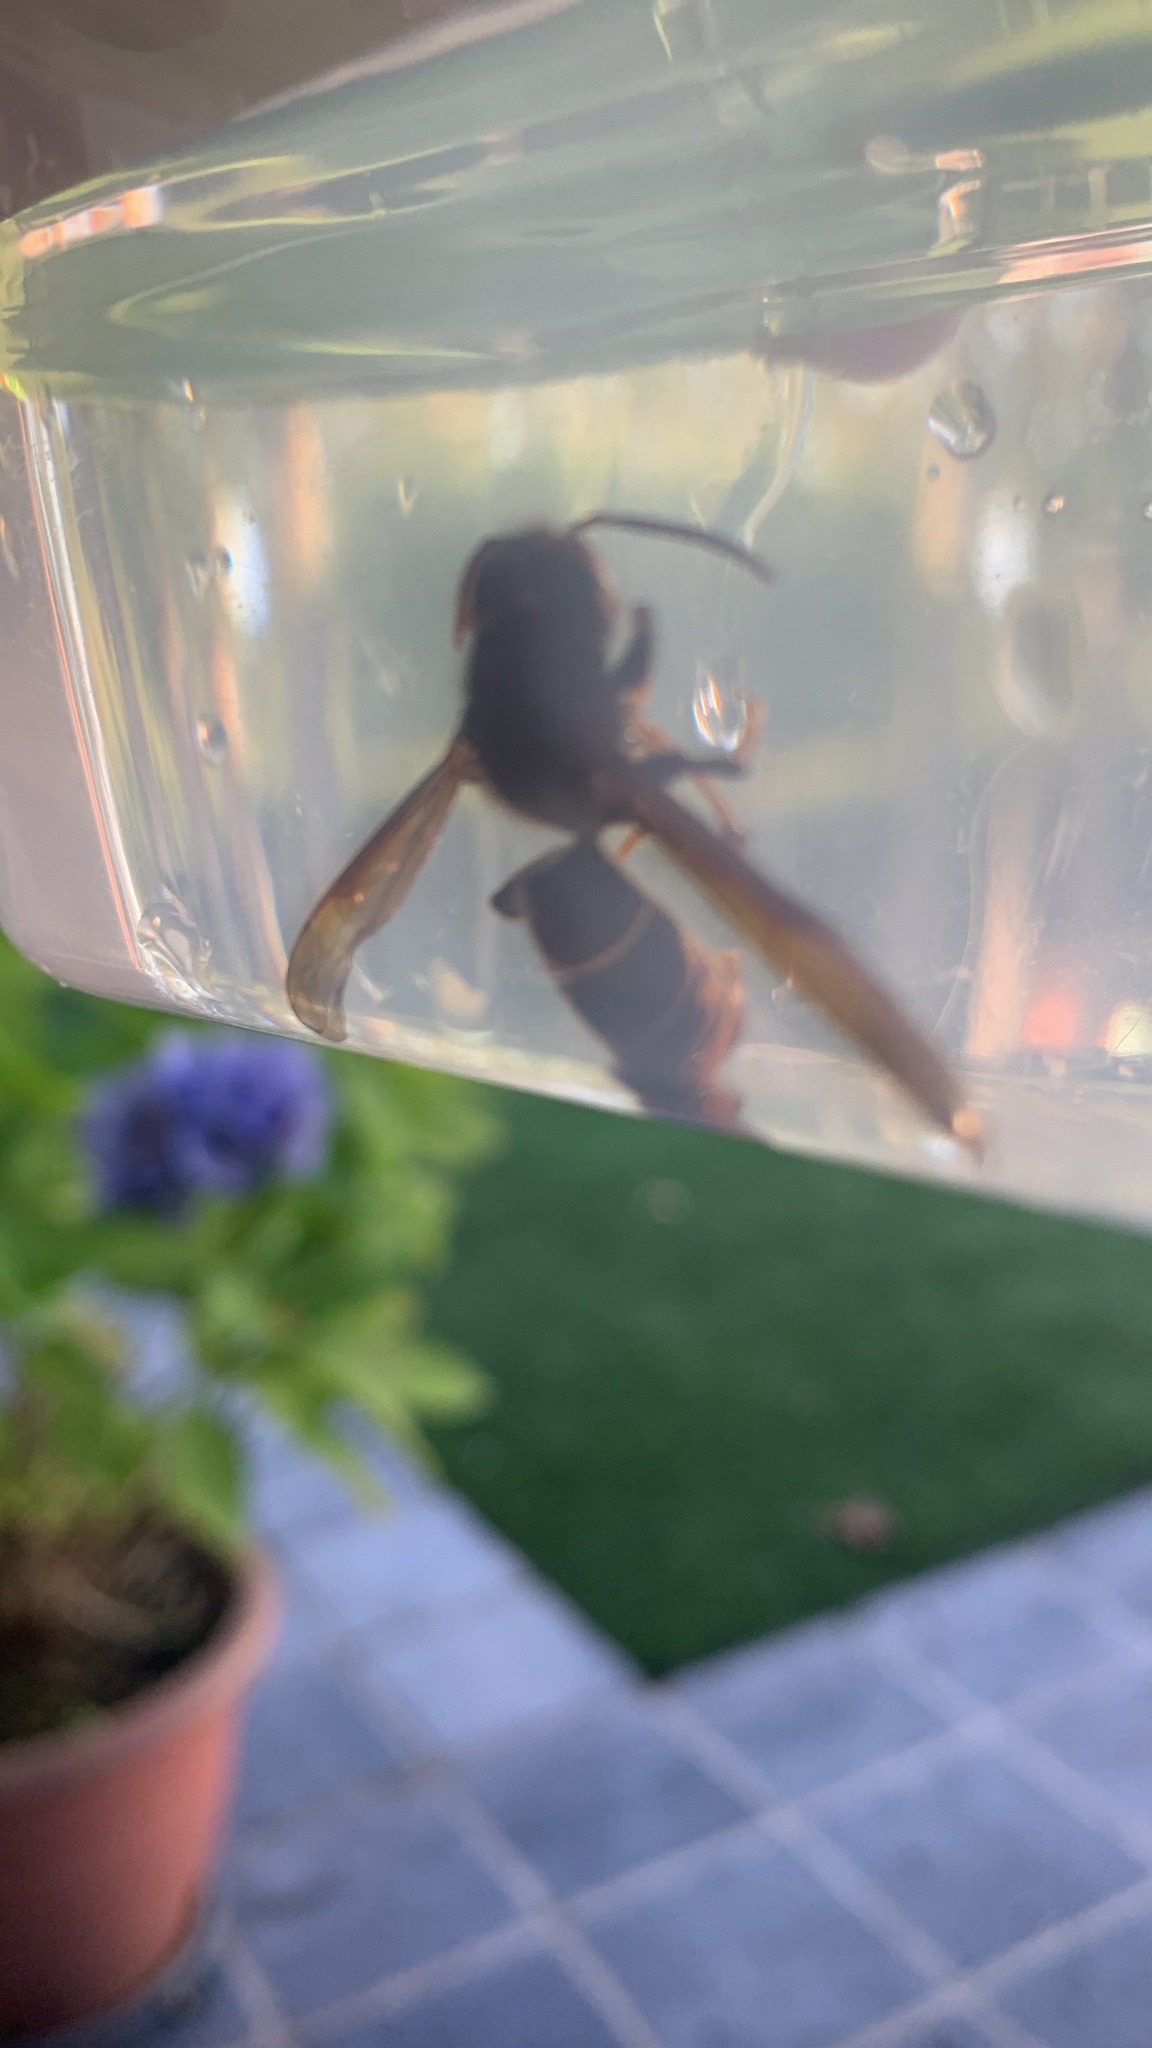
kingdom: Animalia
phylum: Arthropoda
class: Insecta
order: Hymenoptera
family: Vespidae
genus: Vespa
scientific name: Vespa velutina
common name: Asian hornet
